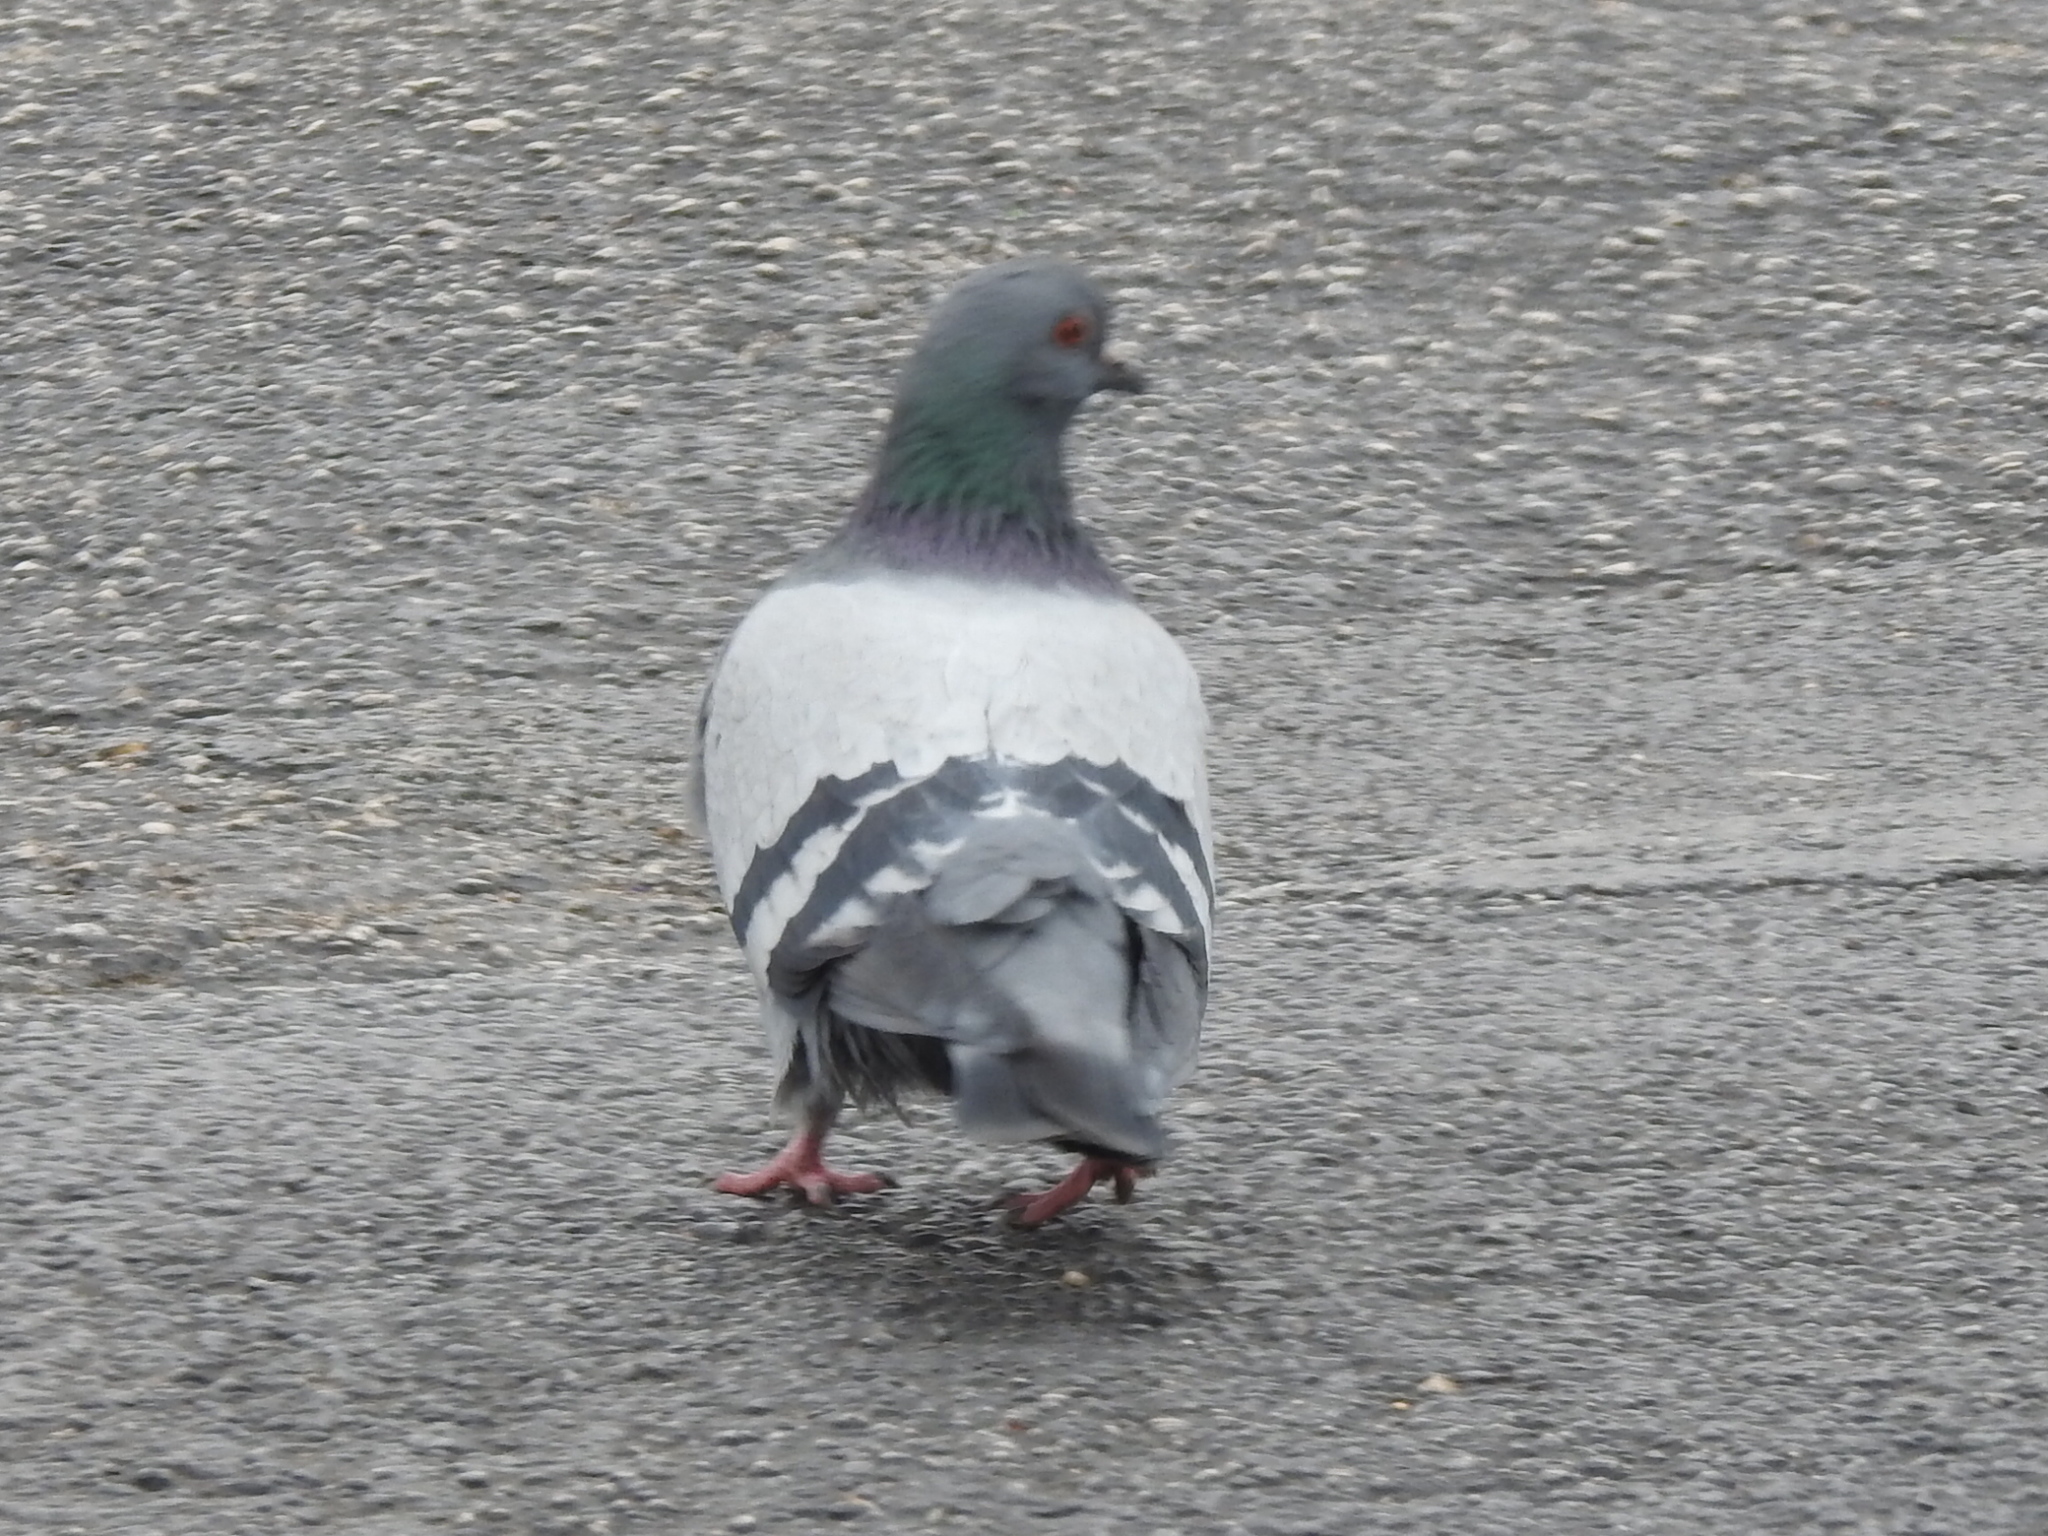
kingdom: Animalia
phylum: Chordata
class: Aves
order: Columbiformes
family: Columbidae
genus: Columba
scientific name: Columba livia
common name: Rock pigeon
